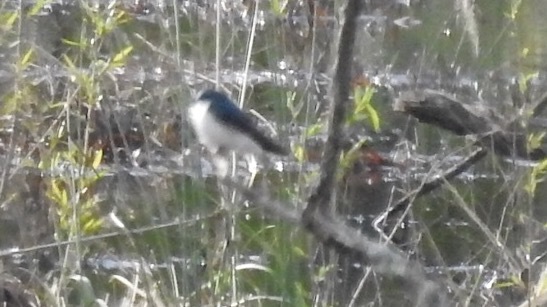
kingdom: Animalia
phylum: Chordata
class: Aves
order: Passeriformes
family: Hirundinidae
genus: Tachycineta
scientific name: Tachycineta bicolor
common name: Tree swallow
